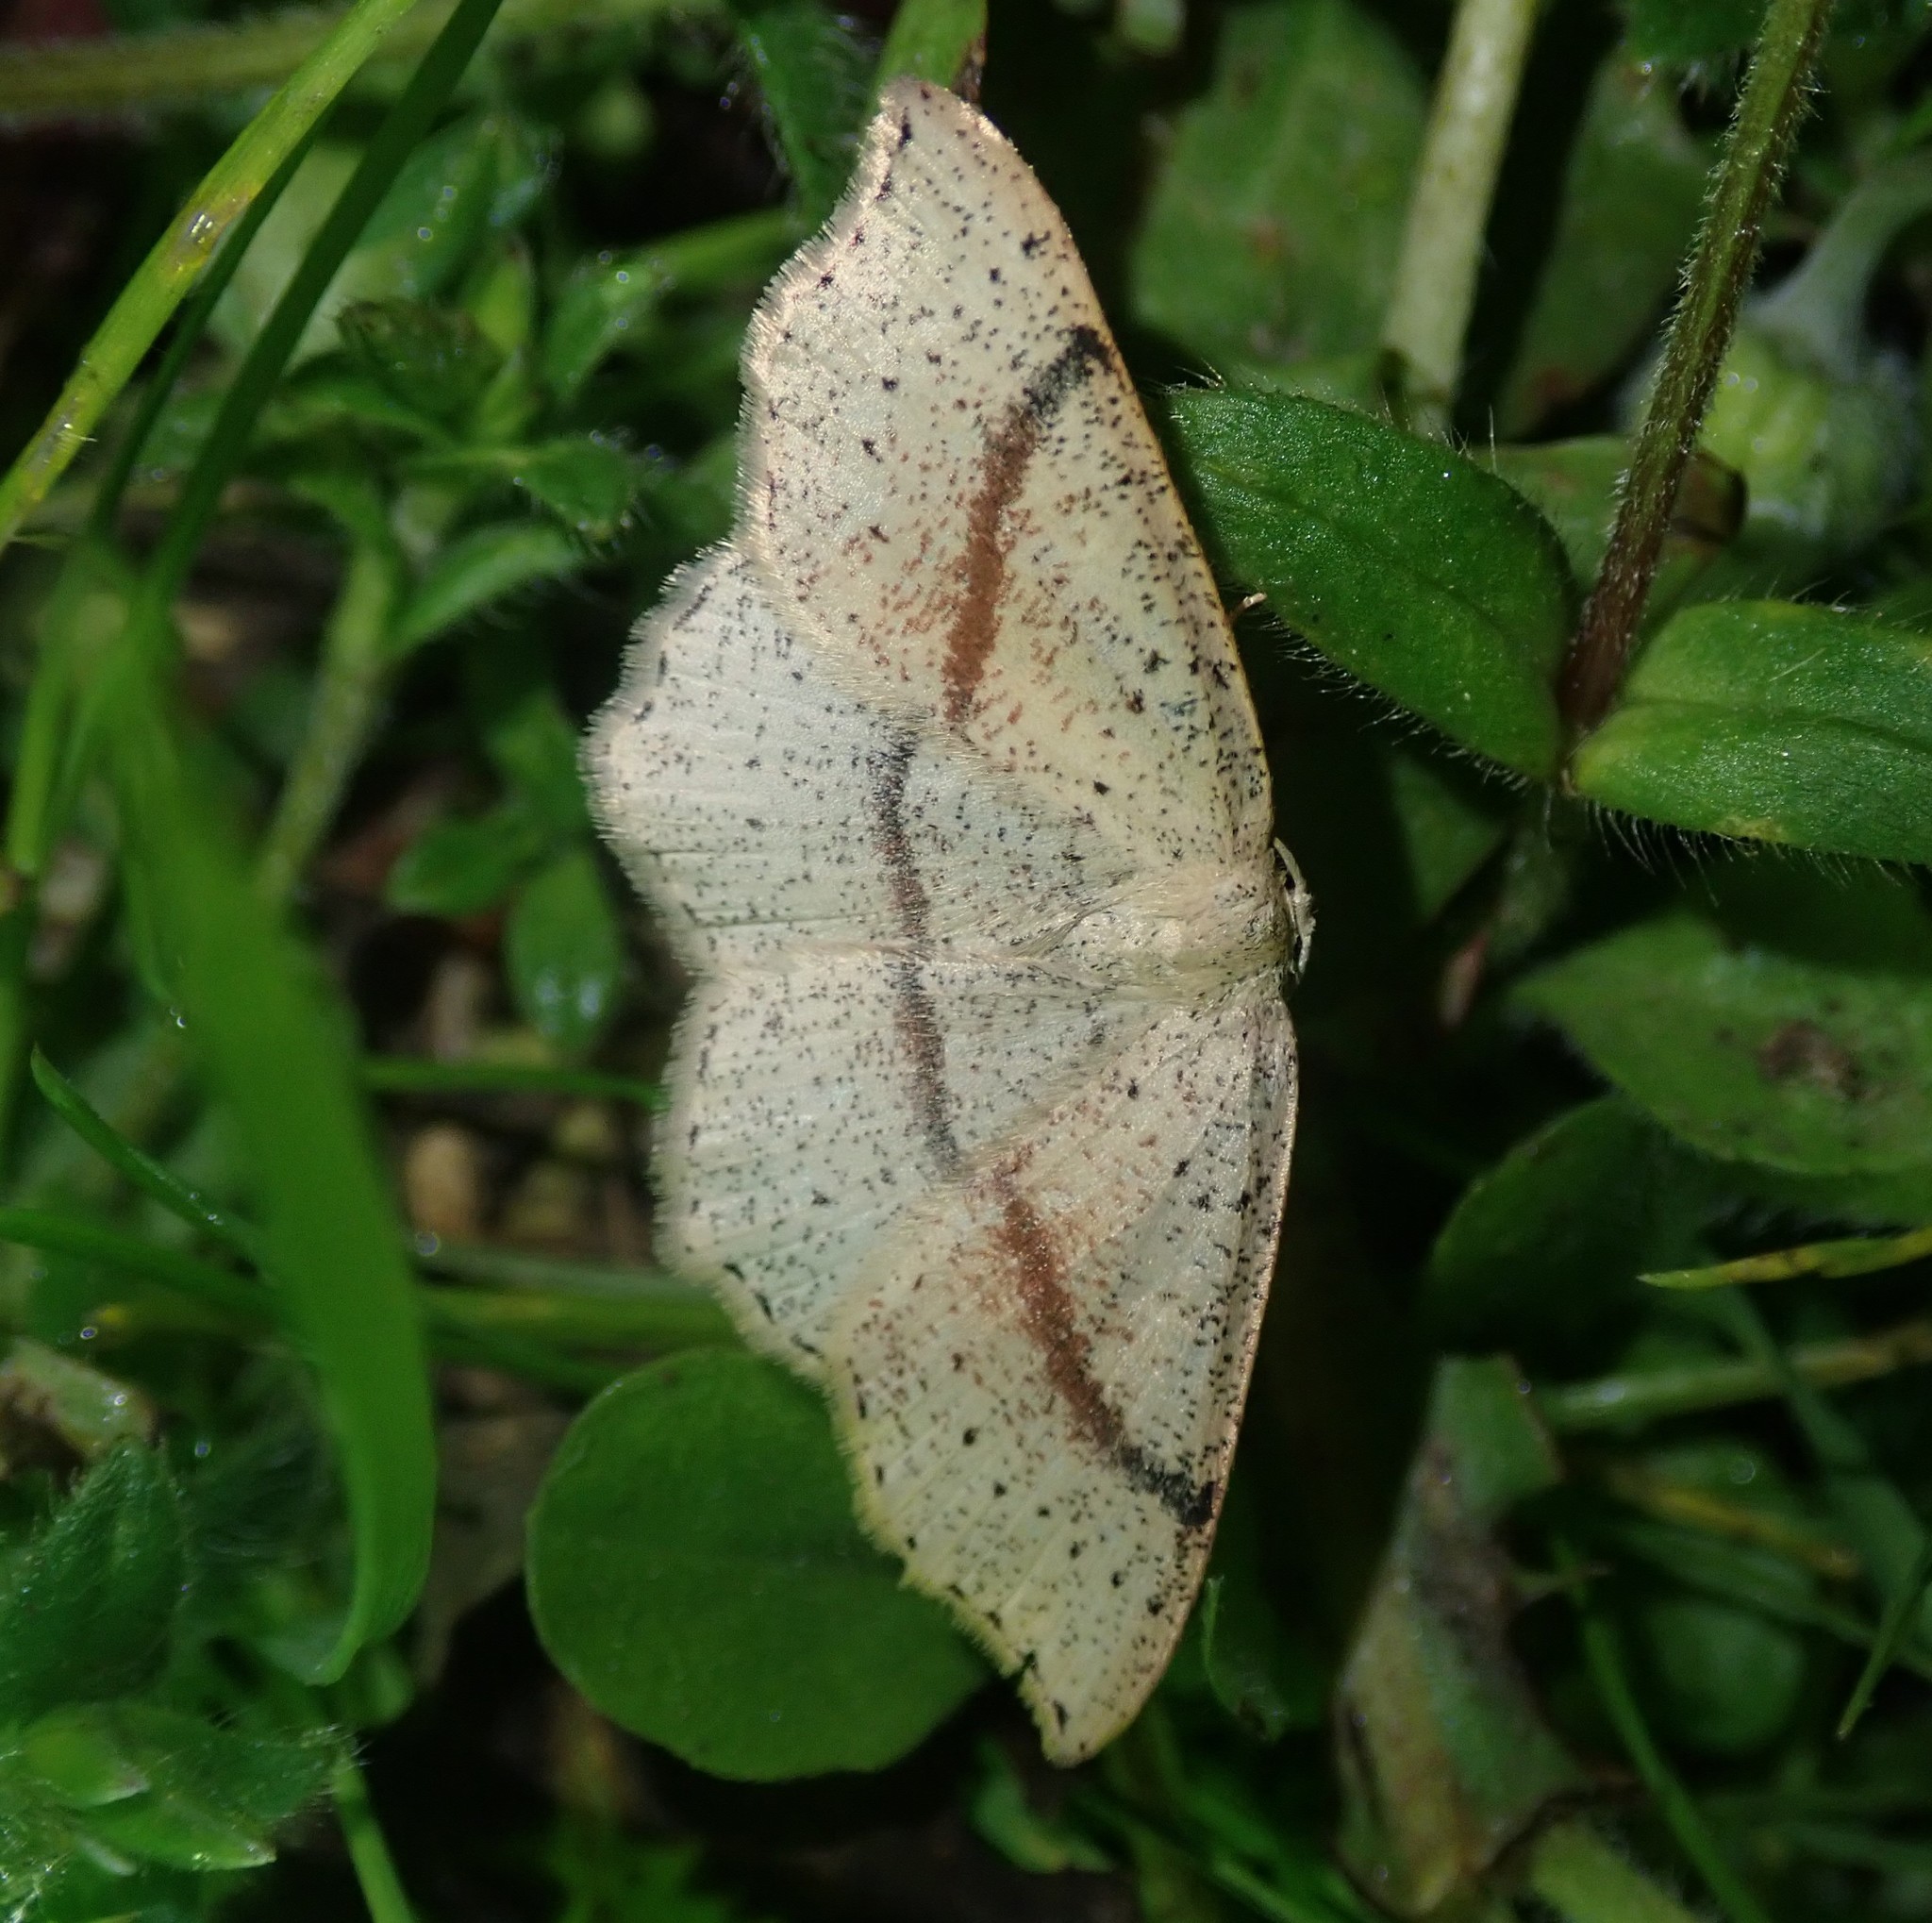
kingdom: Animalia
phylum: Arthropoda
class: Insecta
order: Lepidoptera
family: Geometridae
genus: Cyclophora
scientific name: Cyclophora punctaria
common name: Maiden's blush
